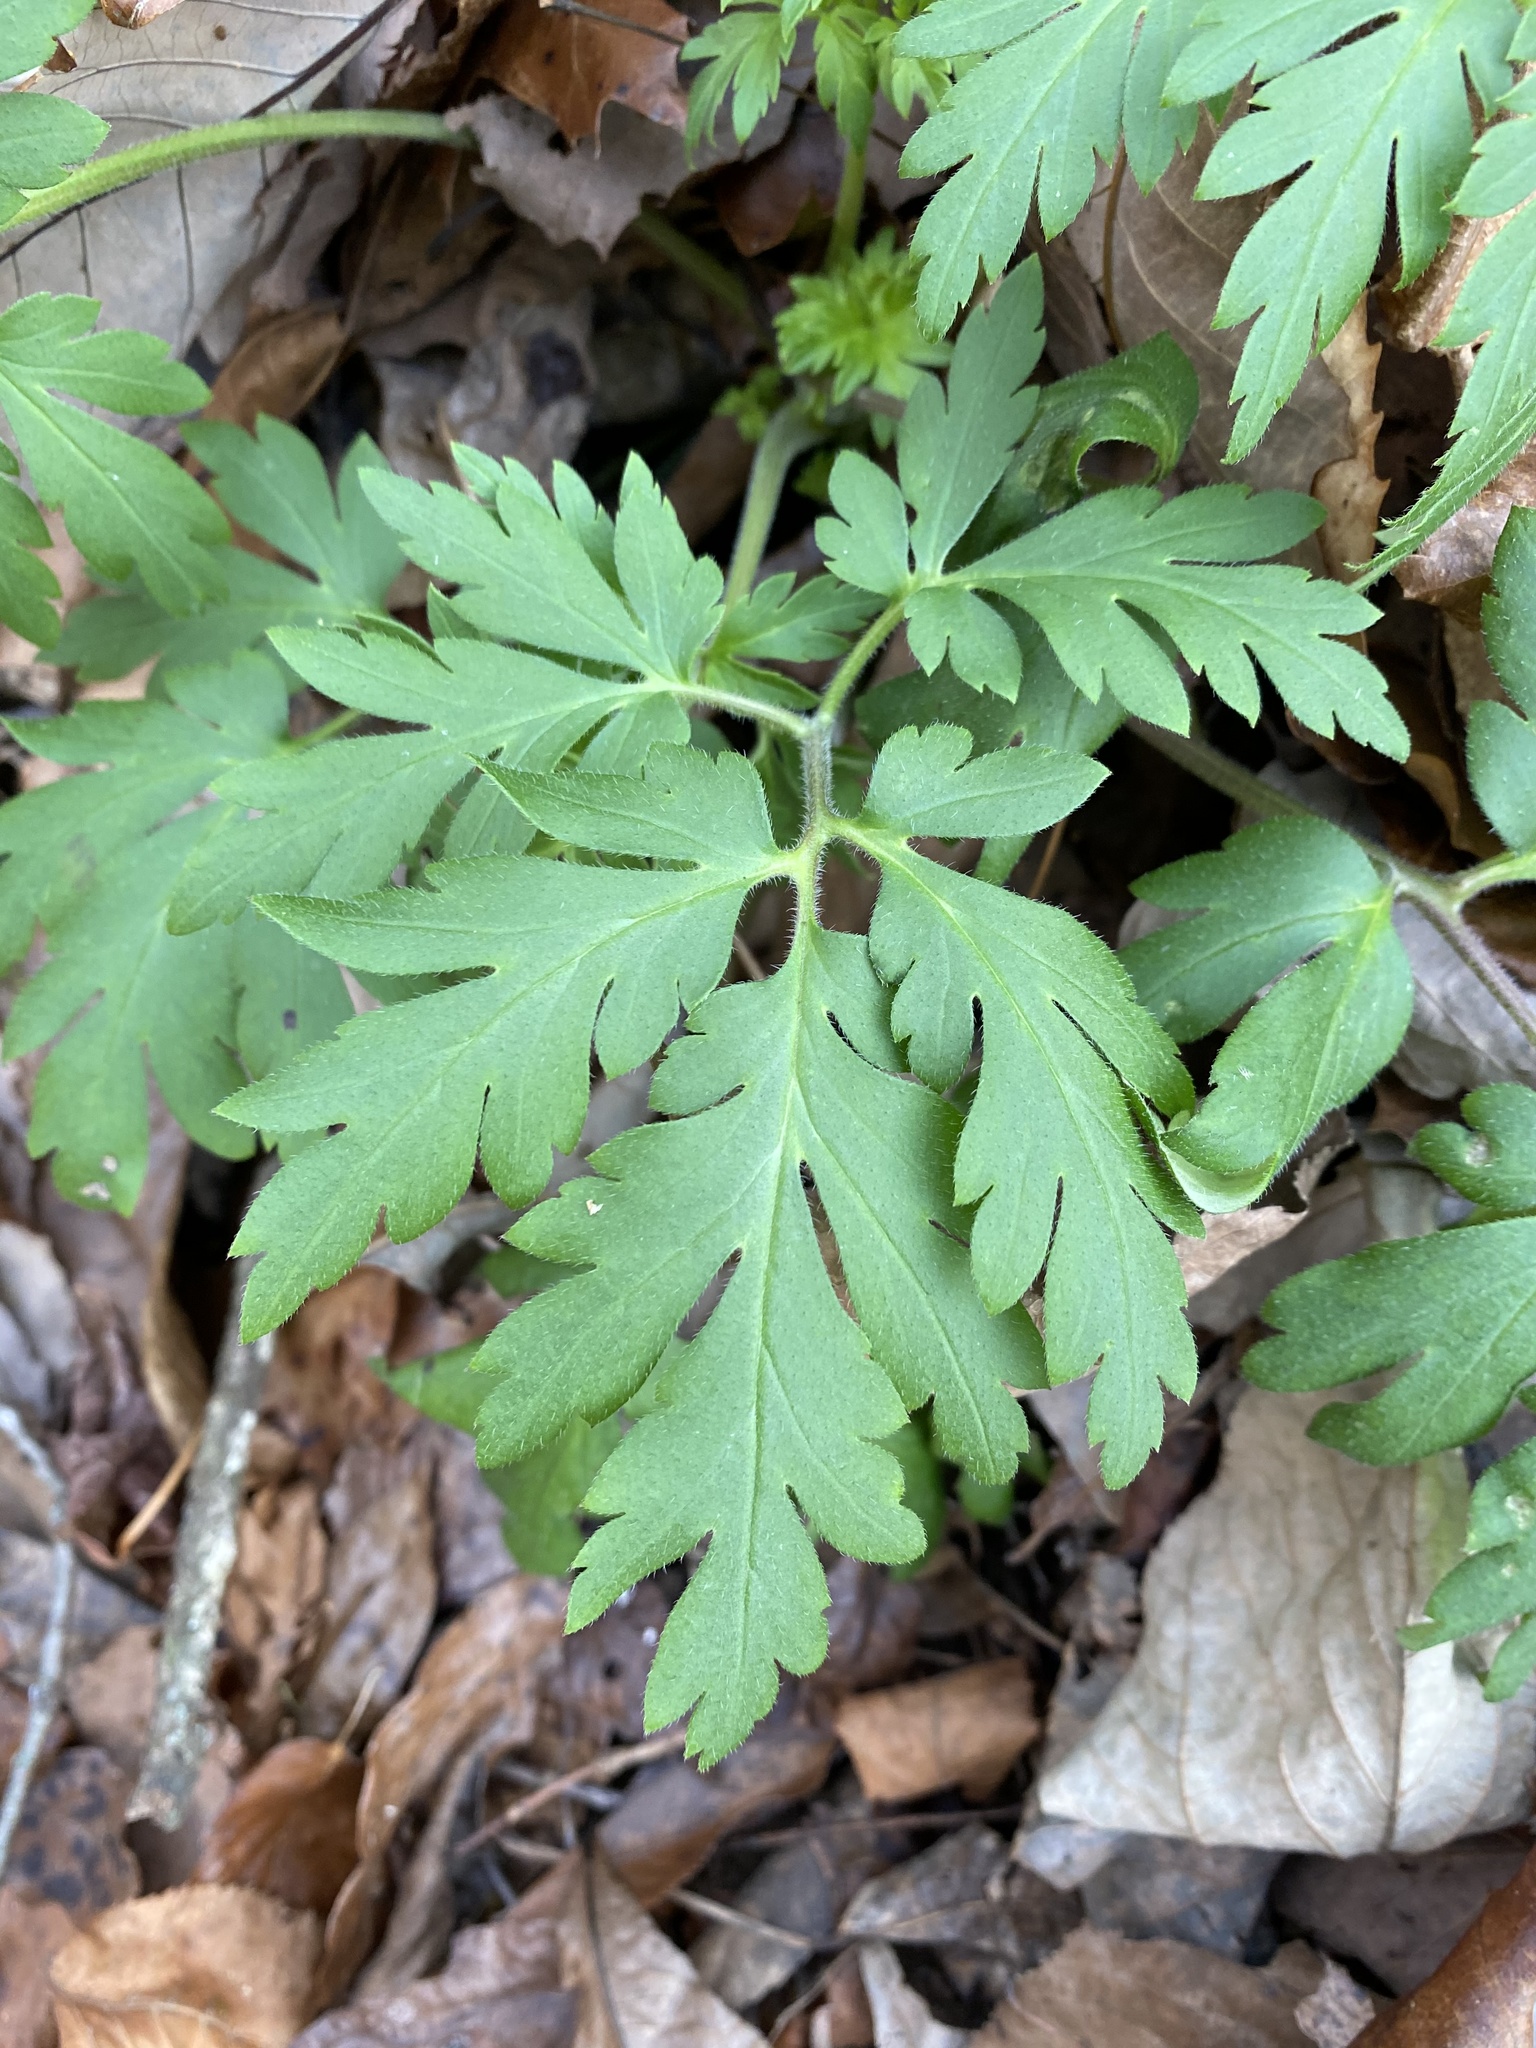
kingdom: Plantae
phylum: Tracheophyta
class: Magnoliopsida
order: Boraginales
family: Hydrophyllaceae
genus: Phacelia
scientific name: Phacelia bipinnatifida
